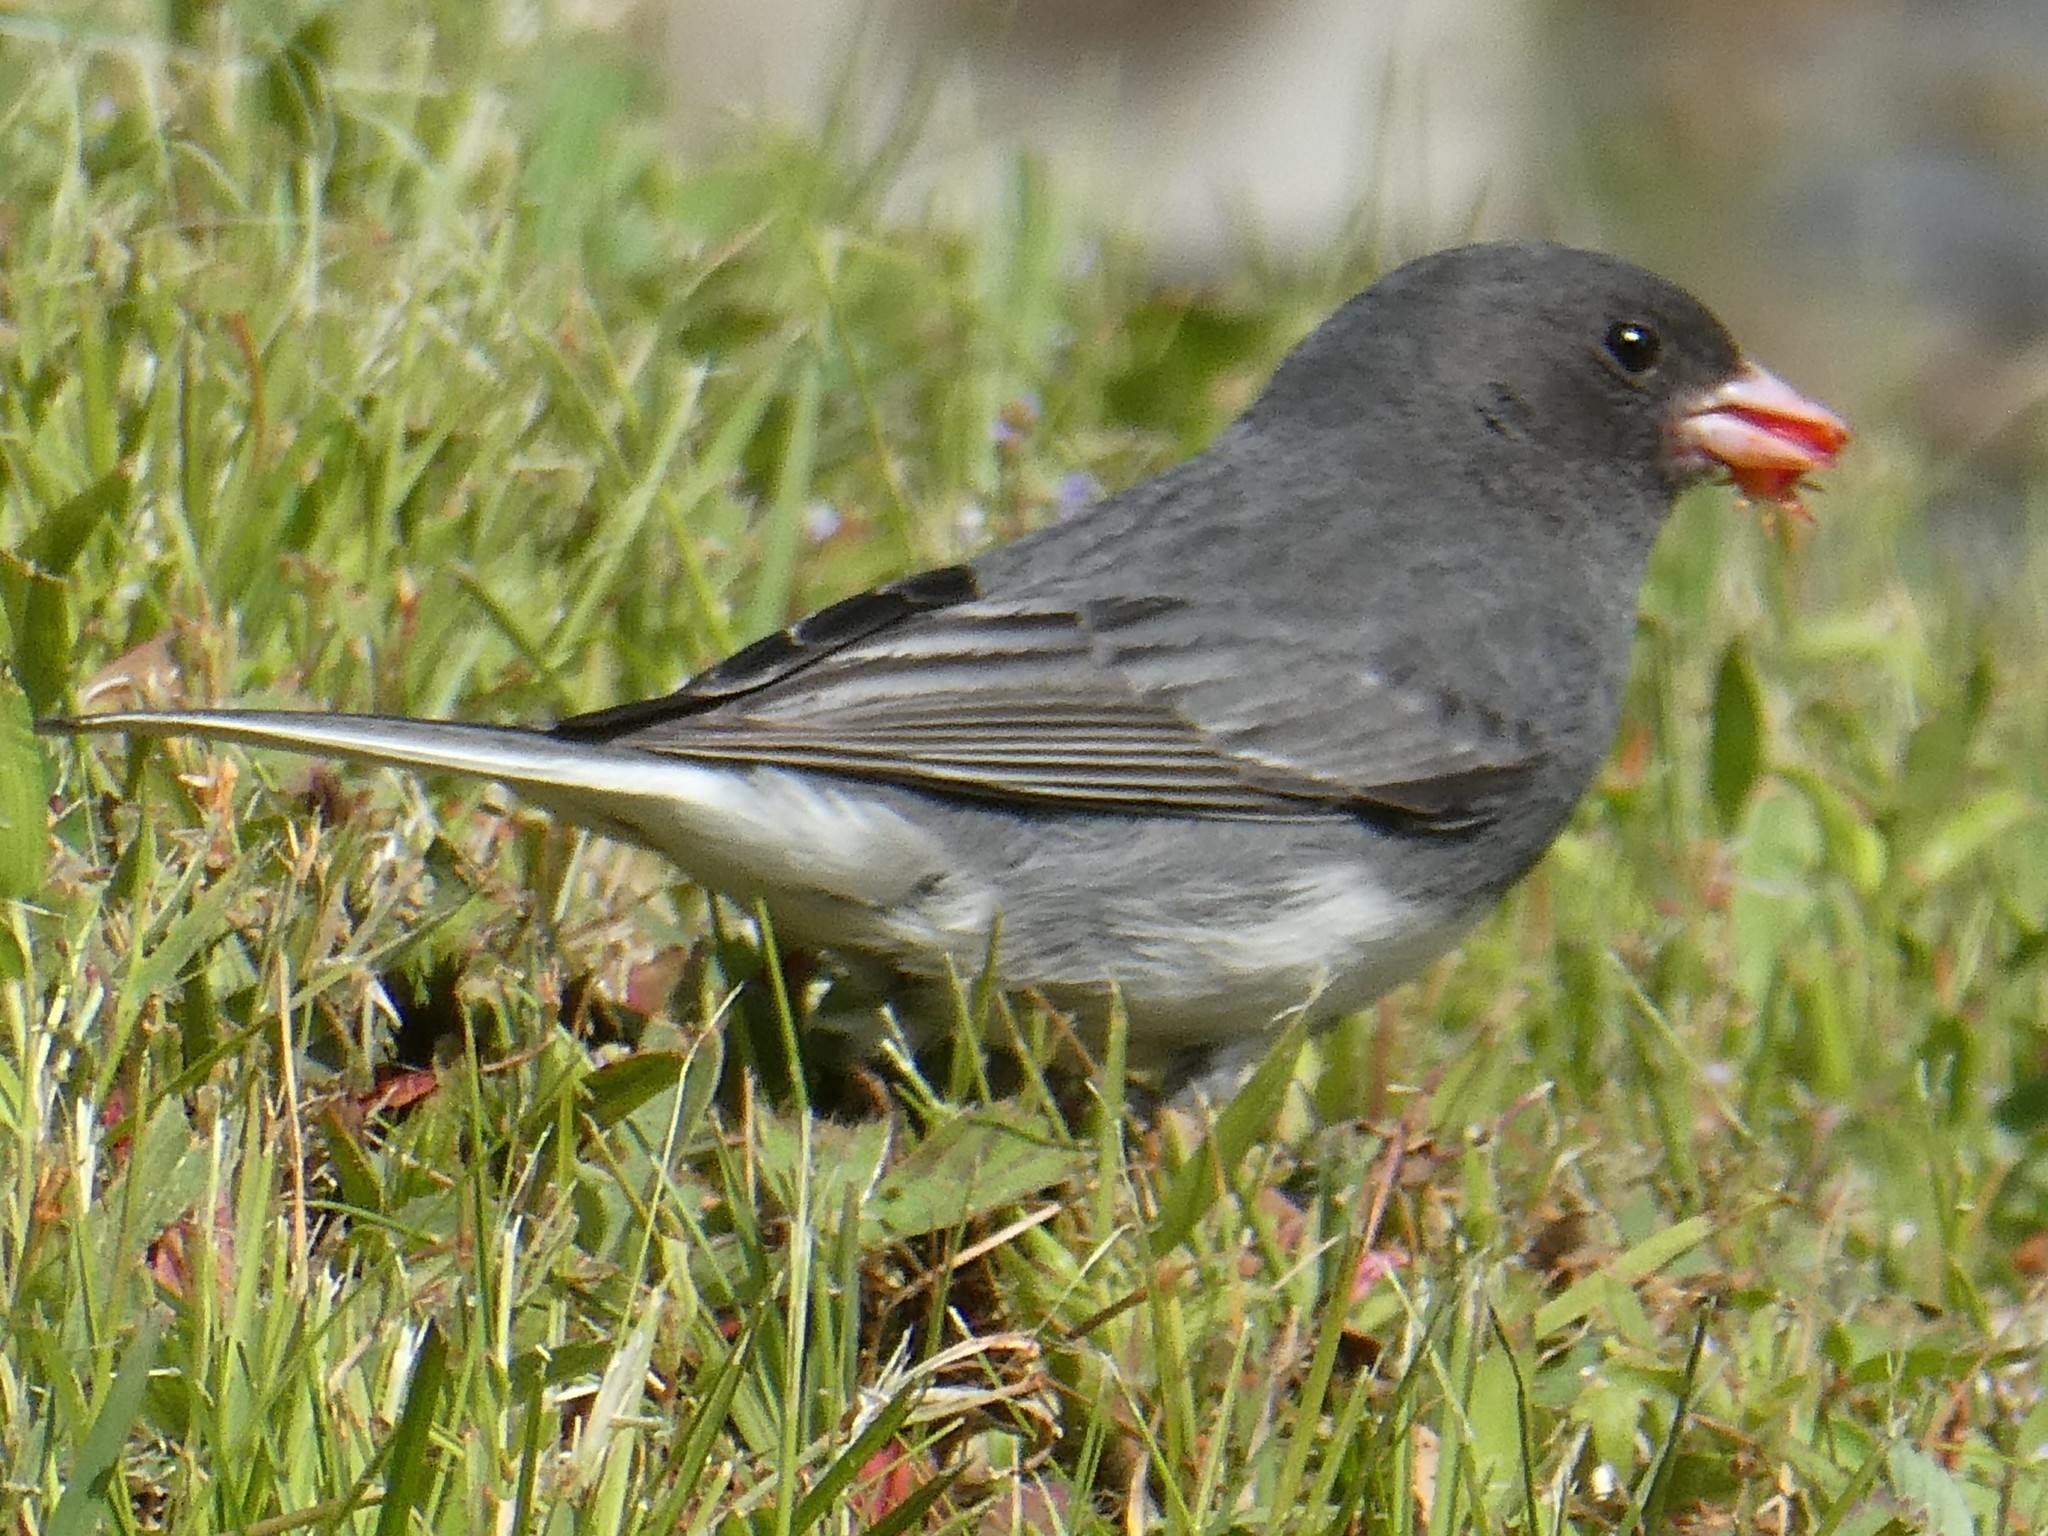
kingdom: Animalia
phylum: Chordata
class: Aves
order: Passeriformes
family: Passerellidae
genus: Junco
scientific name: Junco hyemalis
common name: Dark-eyed junco
